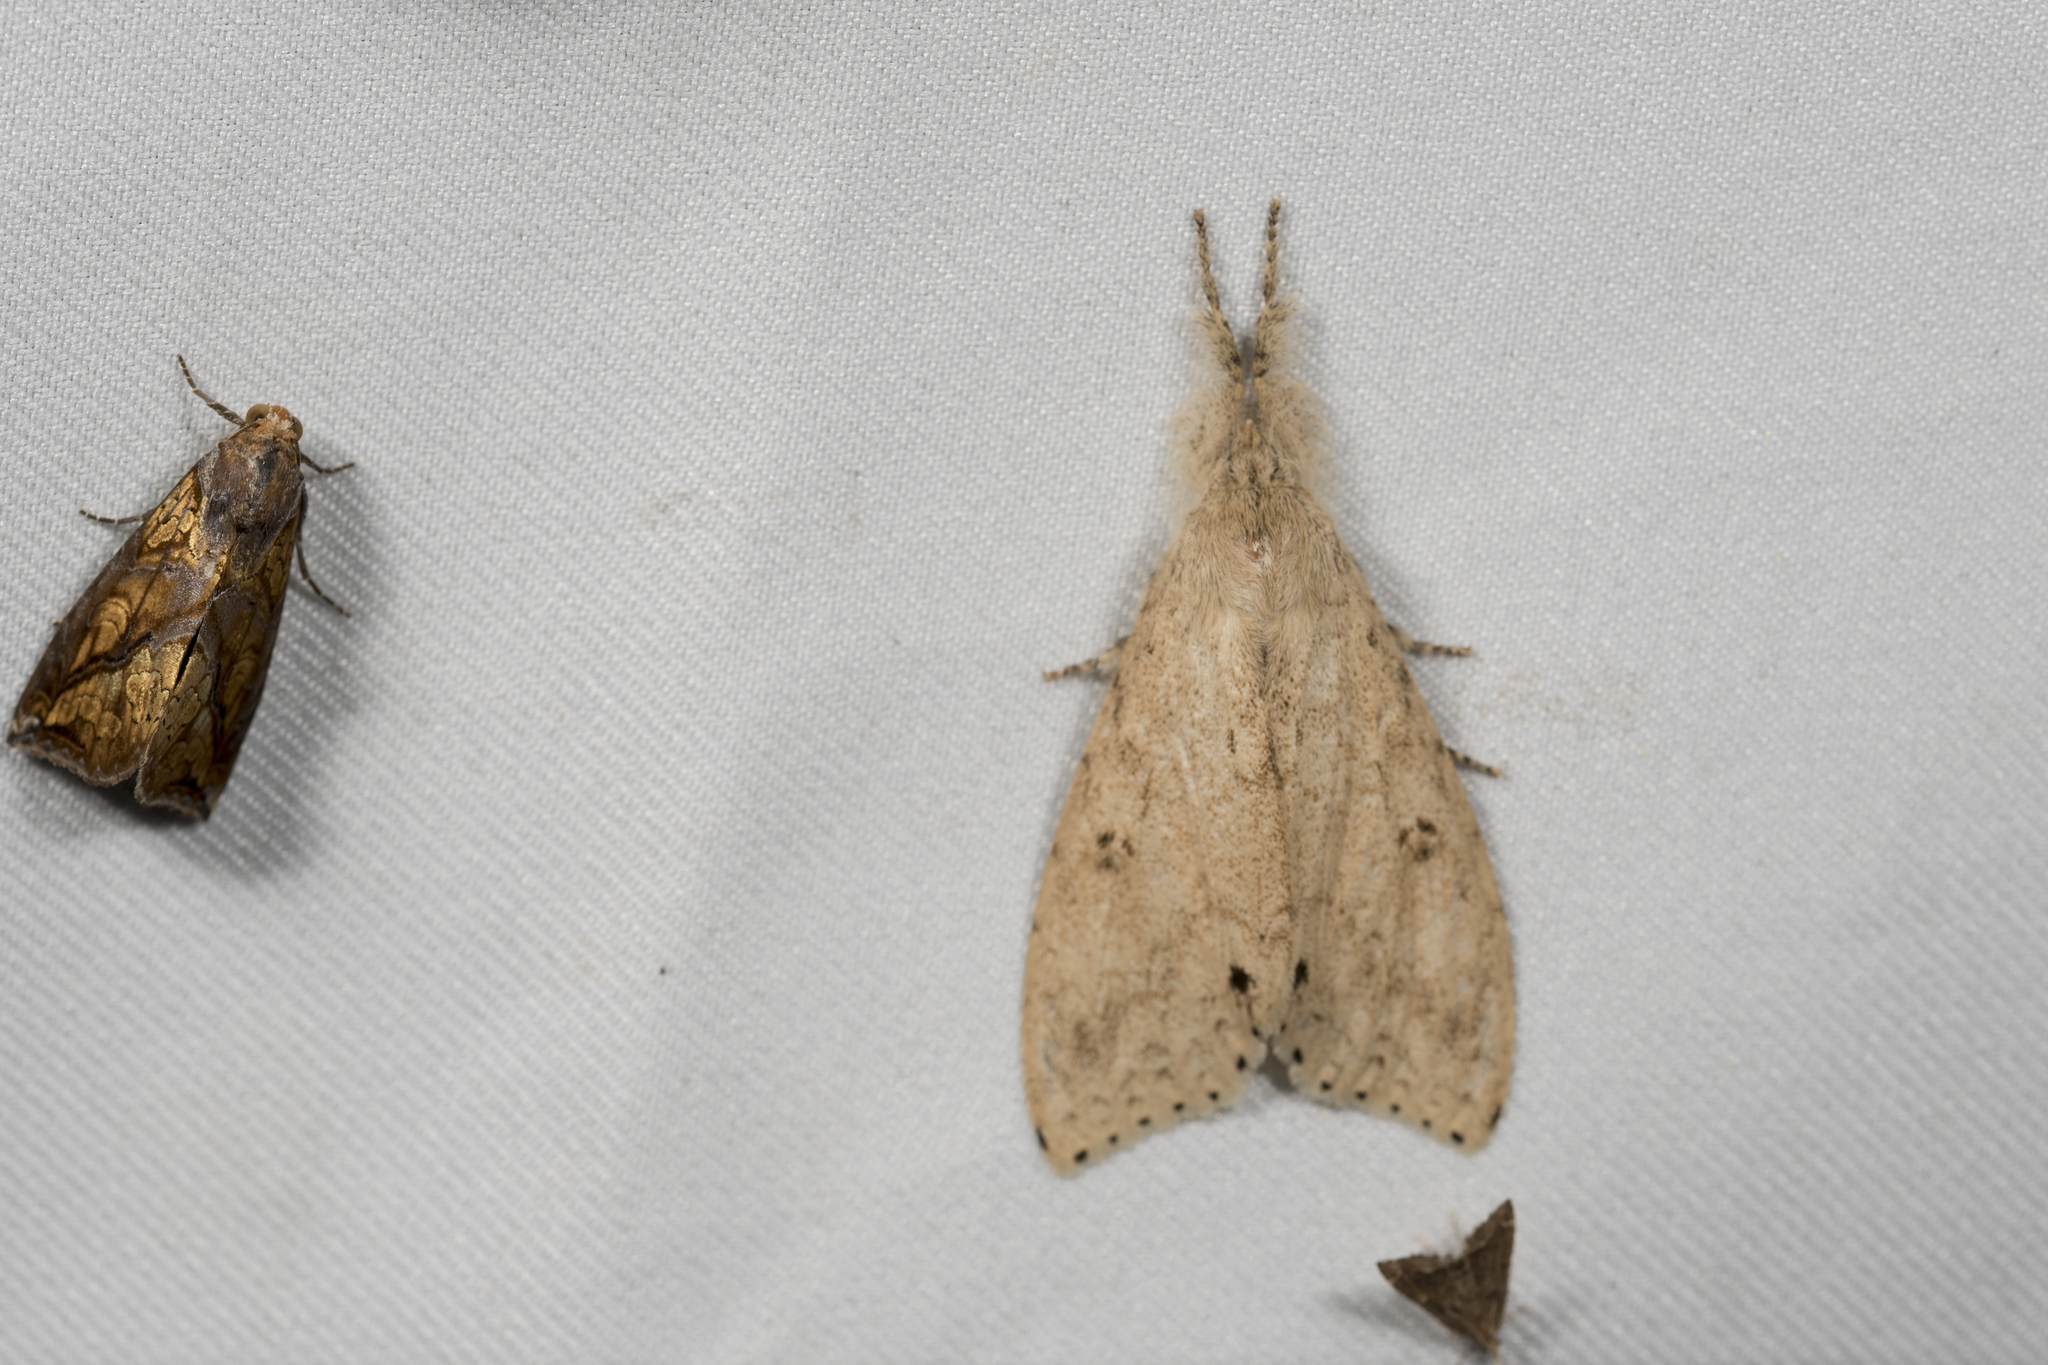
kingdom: Animalia
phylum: Arthropoda
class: Insecta
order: Lepidoptera
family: Erebidae
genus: Calliteara
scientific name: Calliteara angulata
